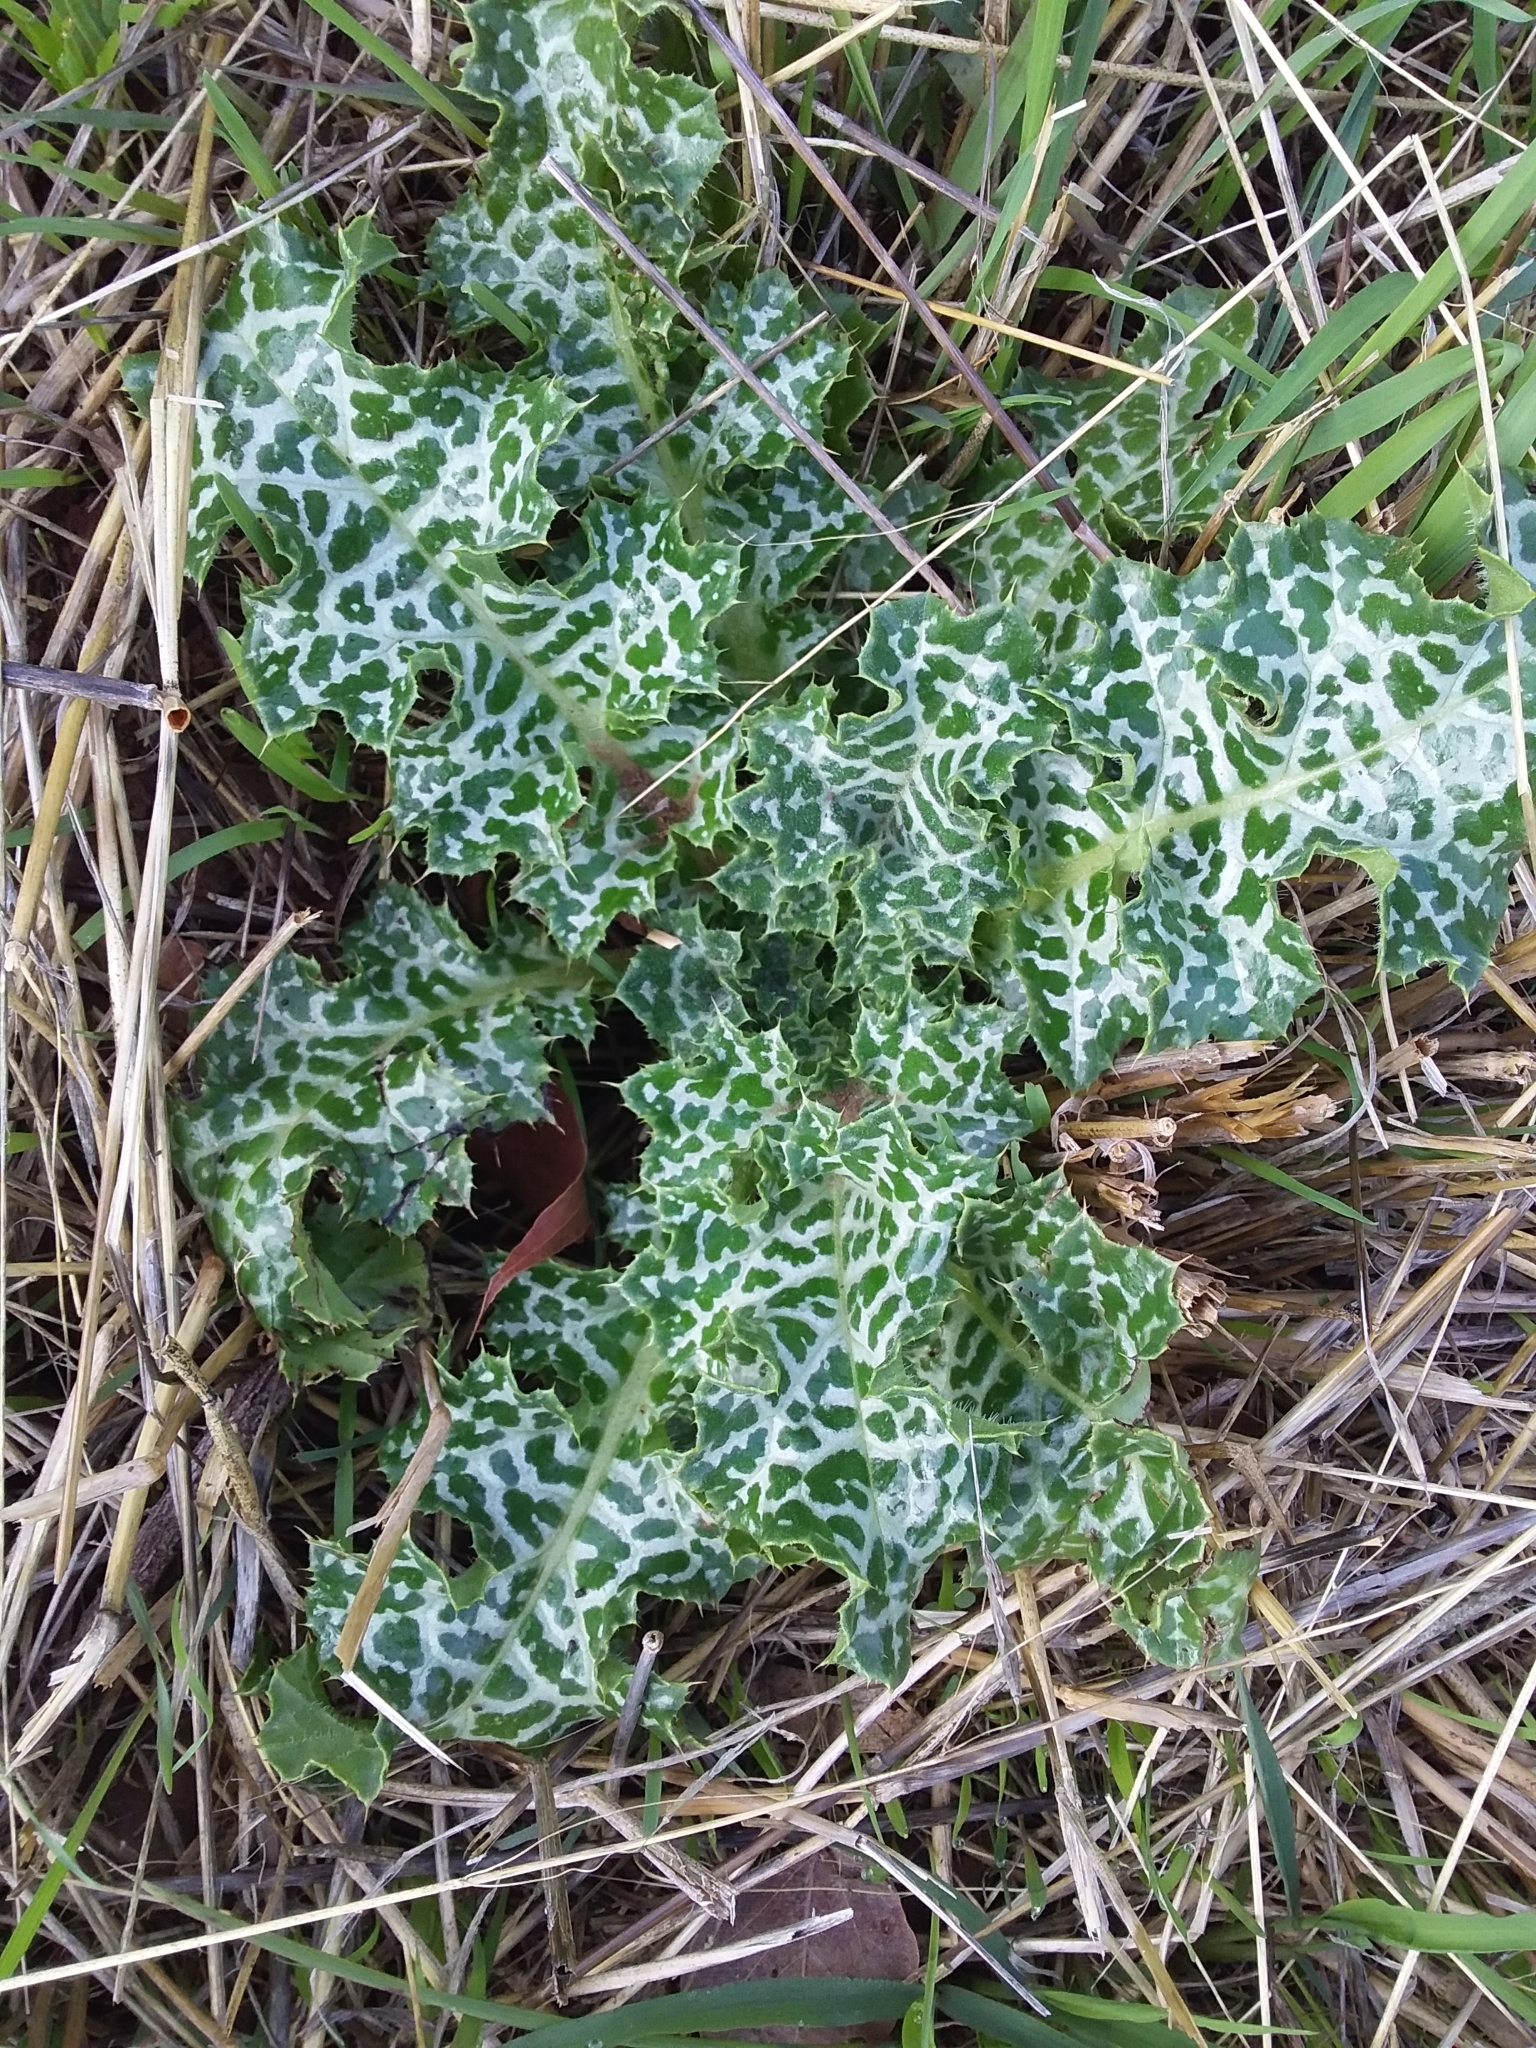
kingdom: Plantae
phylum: Tracheophyta
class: Magnoliopsida
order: Asterales
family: Asteraceae
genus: Silybum
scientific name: Silybum marianum
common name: Milk thistle
